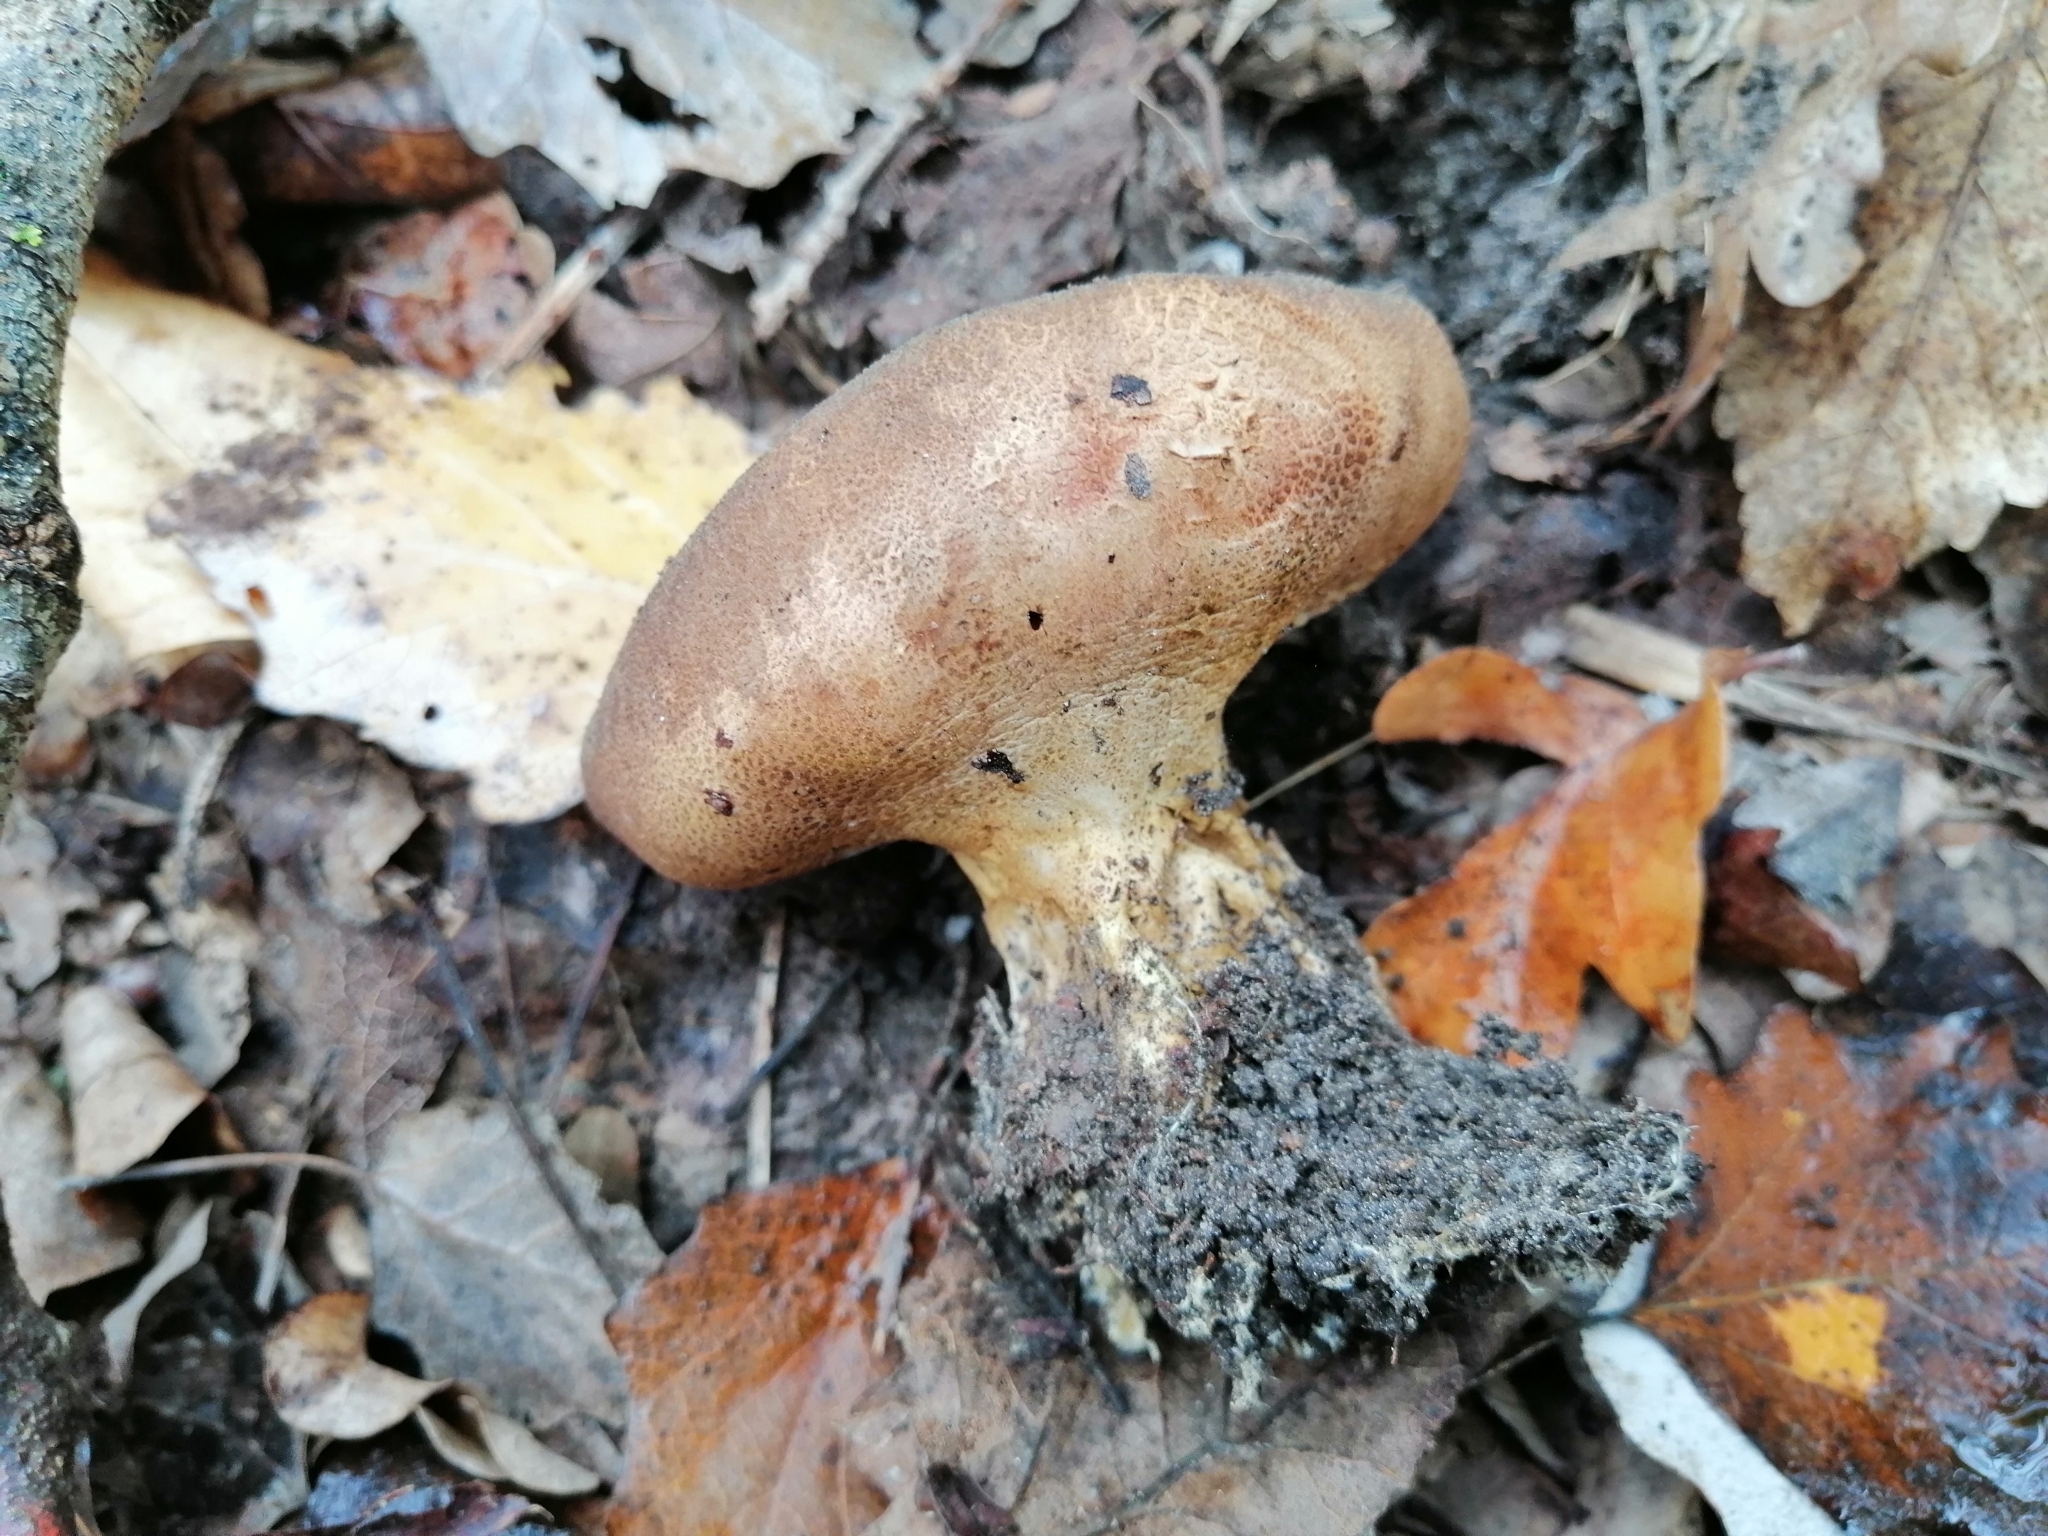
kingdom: Fungi
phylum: Basidiomycota
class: Agaricomycetes
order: Boletales
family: Sclerodermataceae
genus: Scleroderma
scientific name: Scleroderma verrucosum
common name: Scaly earthball
